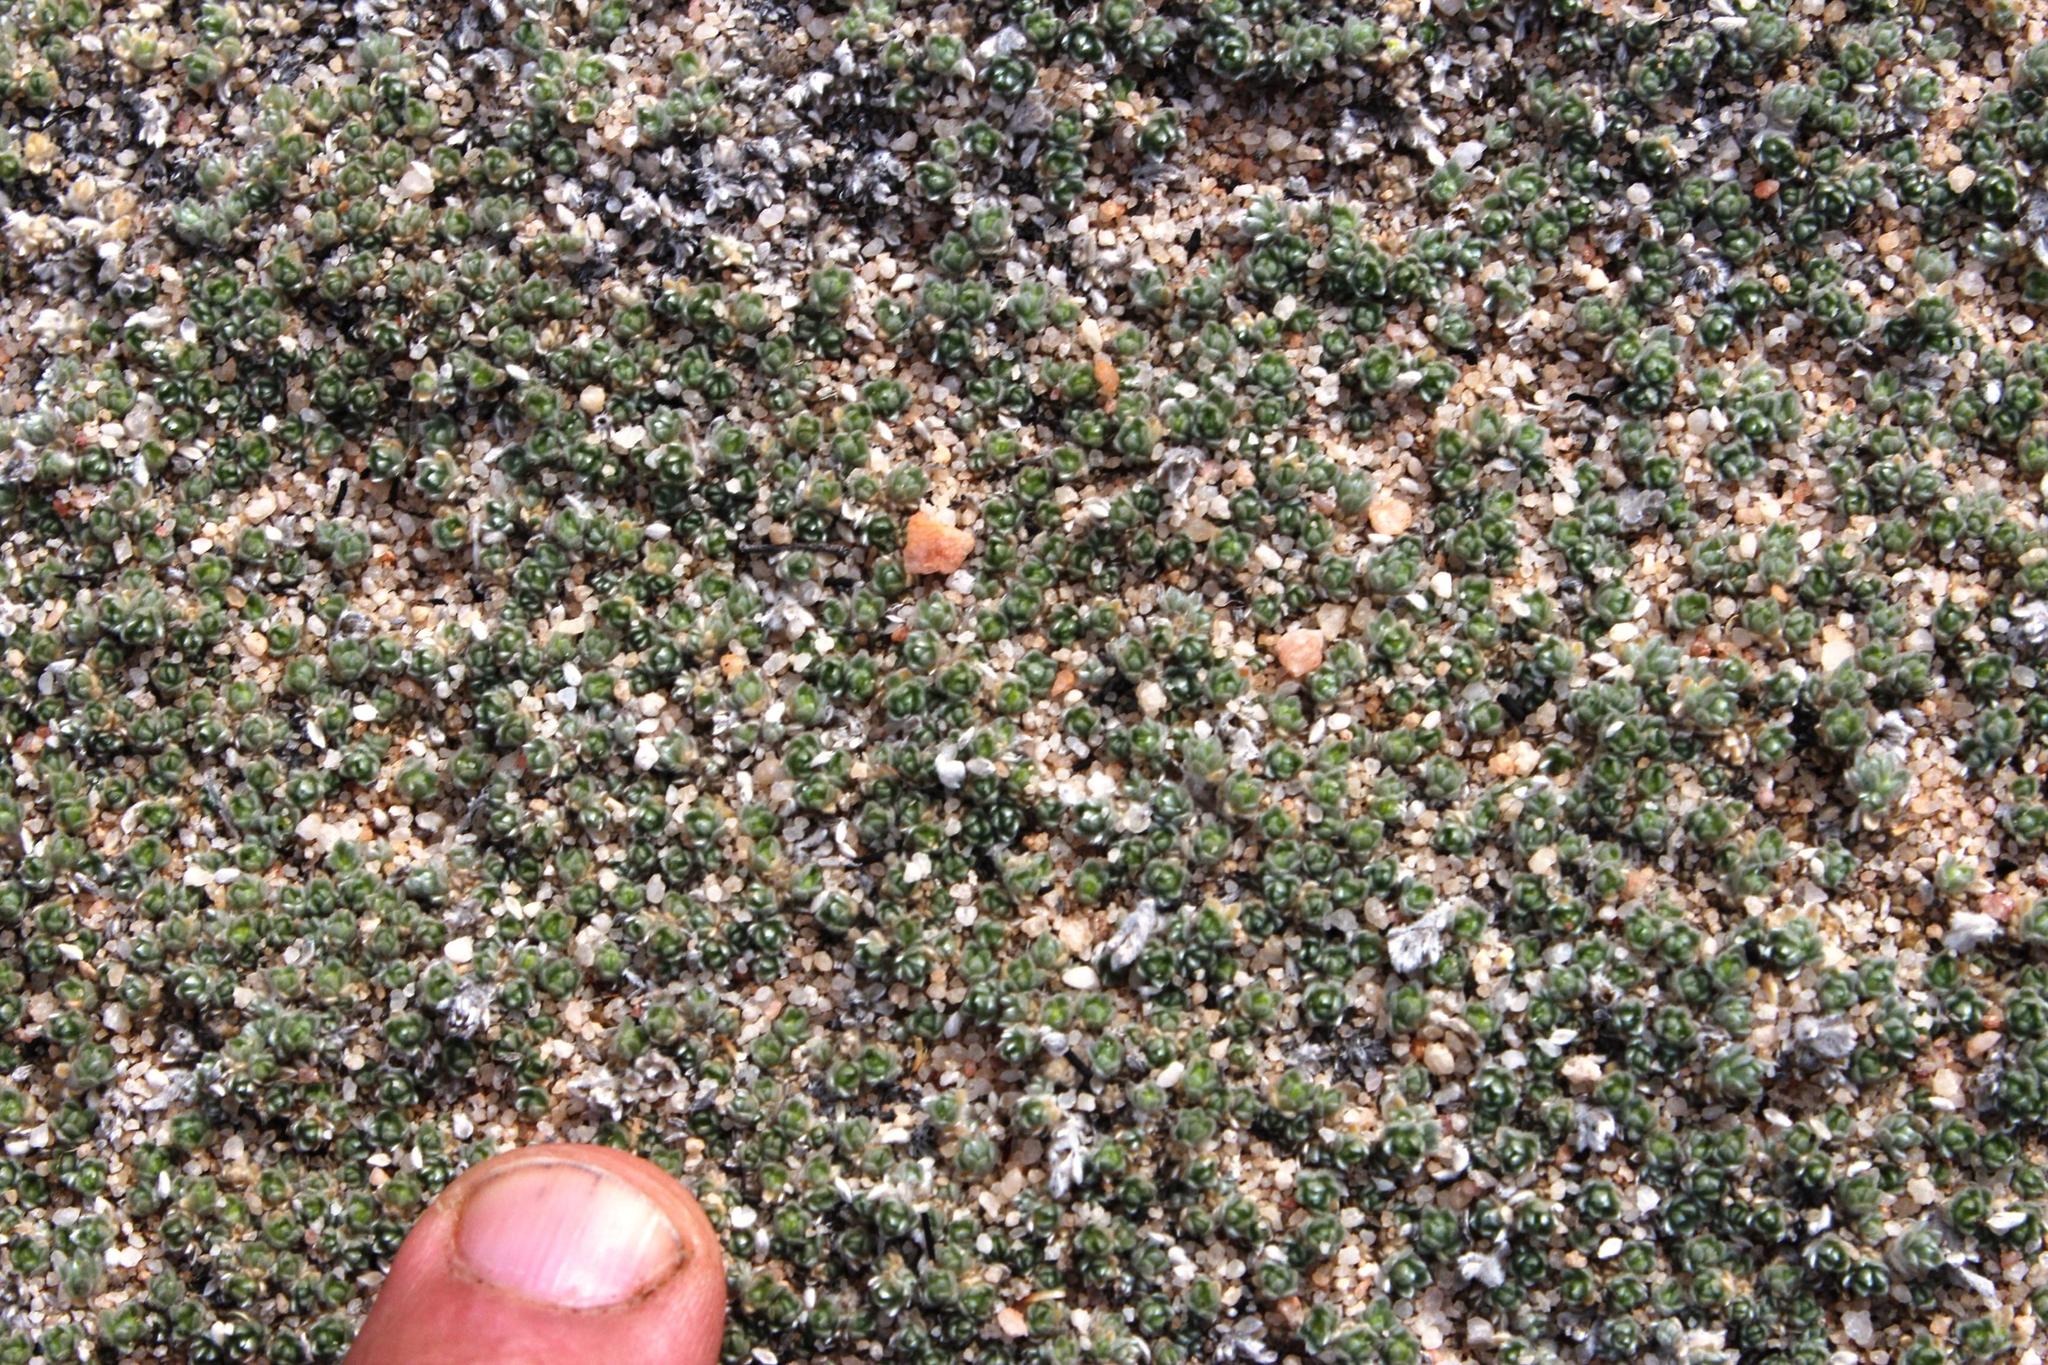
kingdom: Plantae
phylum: Tracheophyta
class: Magnoliopsida
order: Fabales
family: Fabaceae
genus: Aspalathus
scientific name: Aspalathus bodkinii
